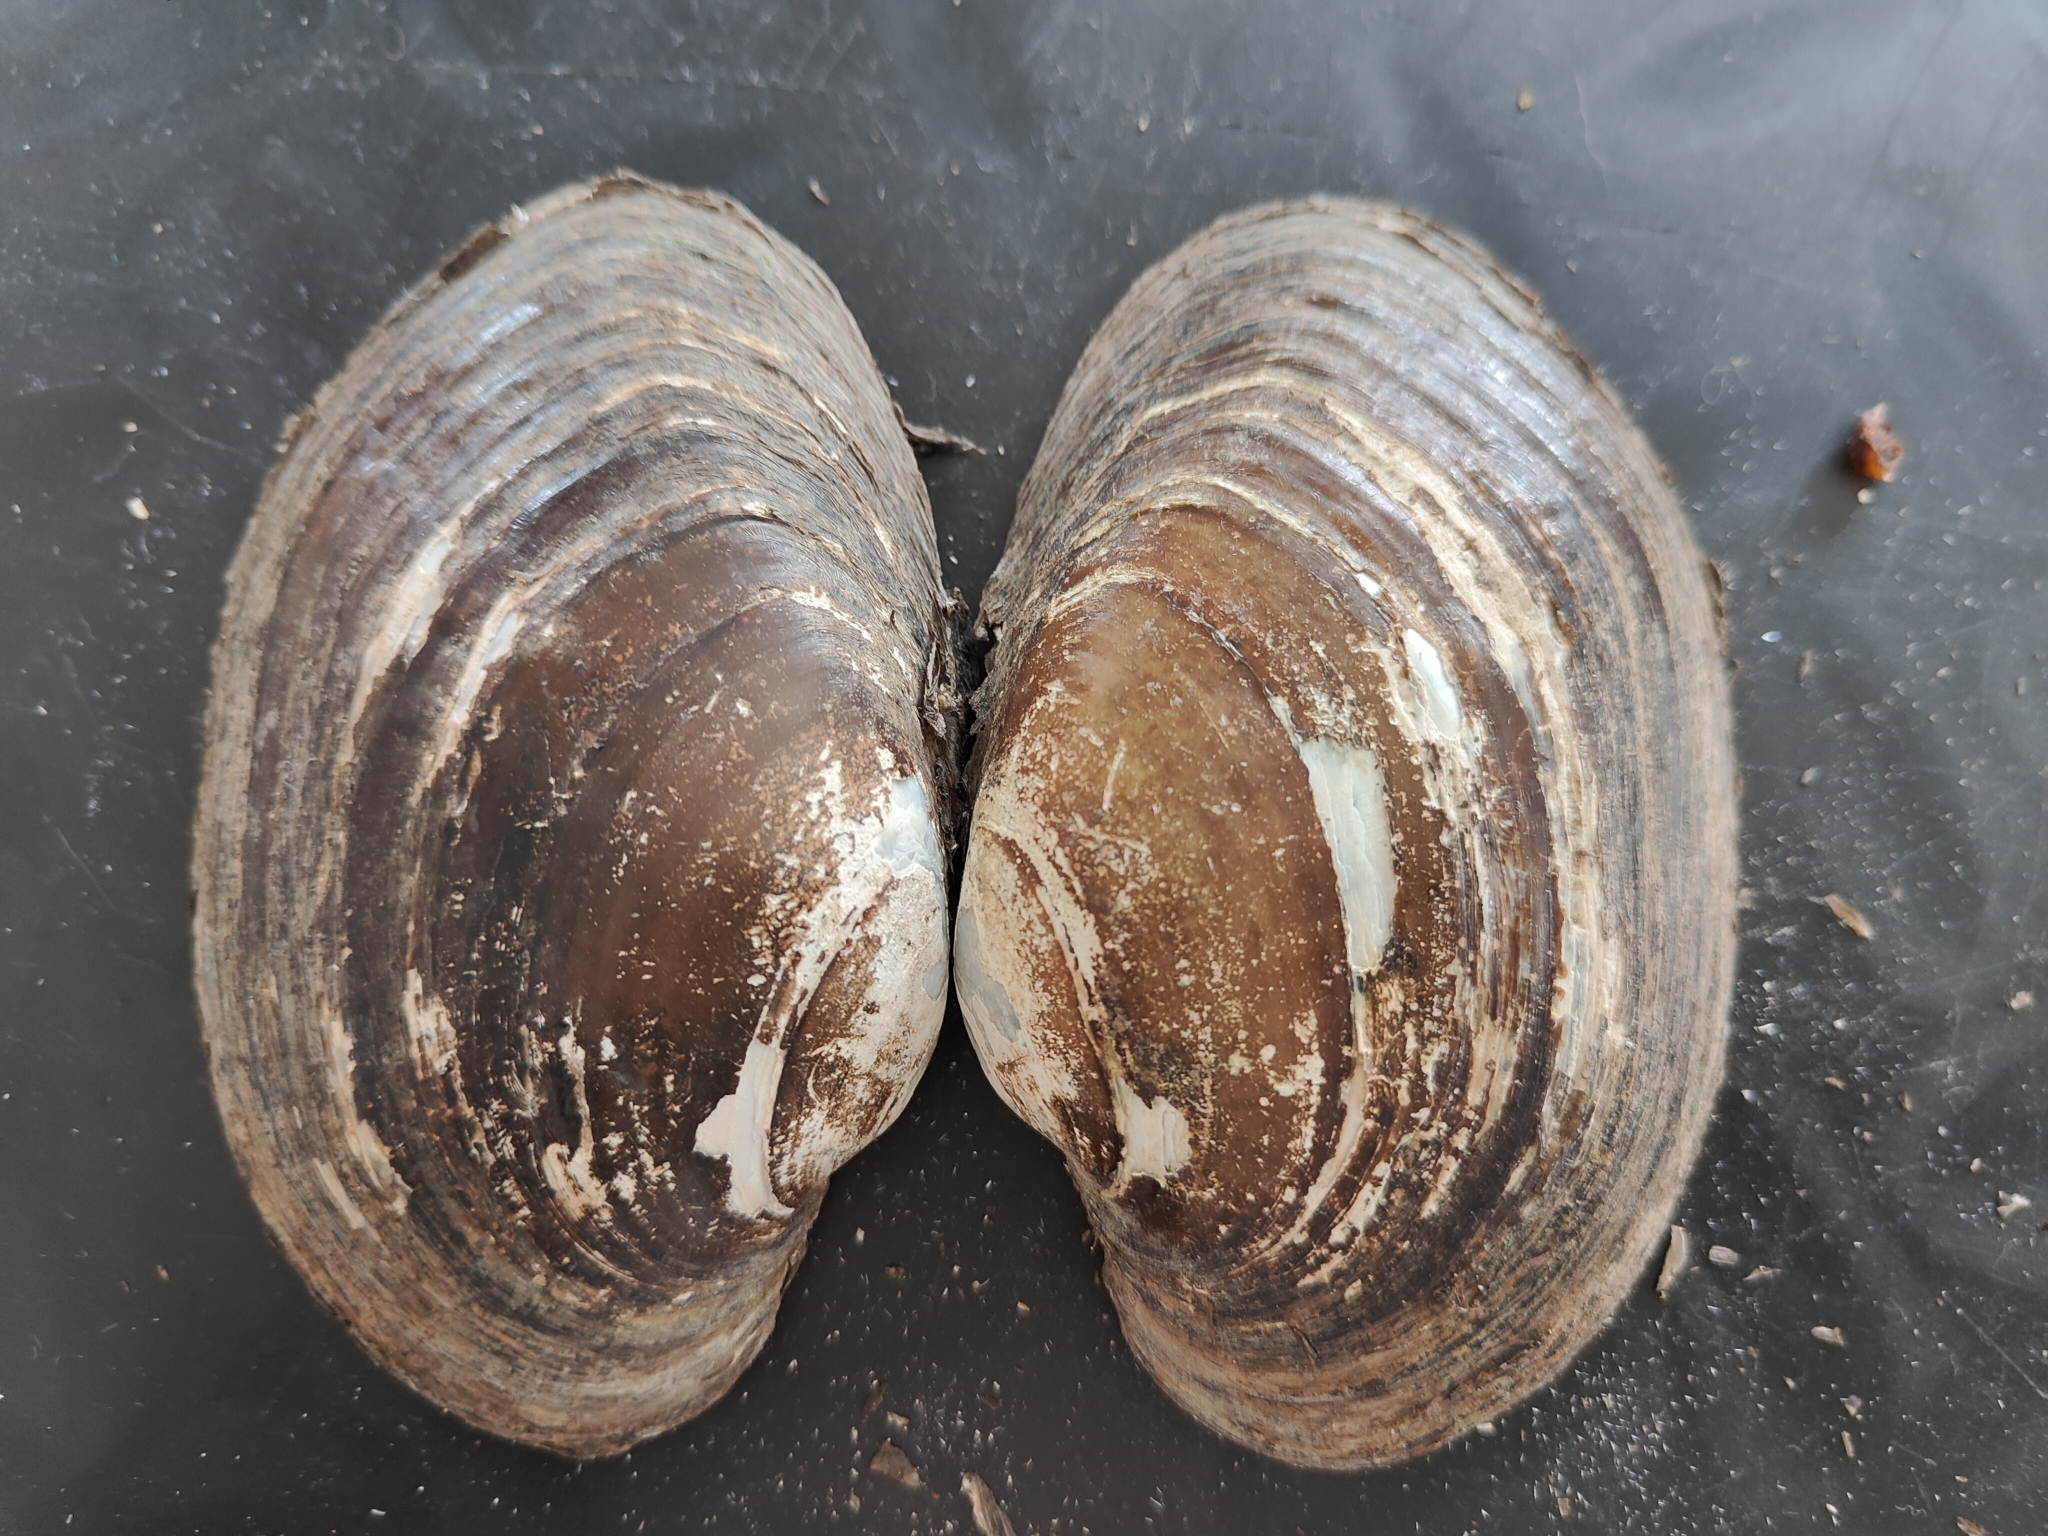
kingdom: Animalia
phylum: Mollusca
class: Bivalvia
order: Unionida
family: Unionidae
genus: Lampsilis
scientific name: Lampsilis cardium
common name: Plain pocketbook
